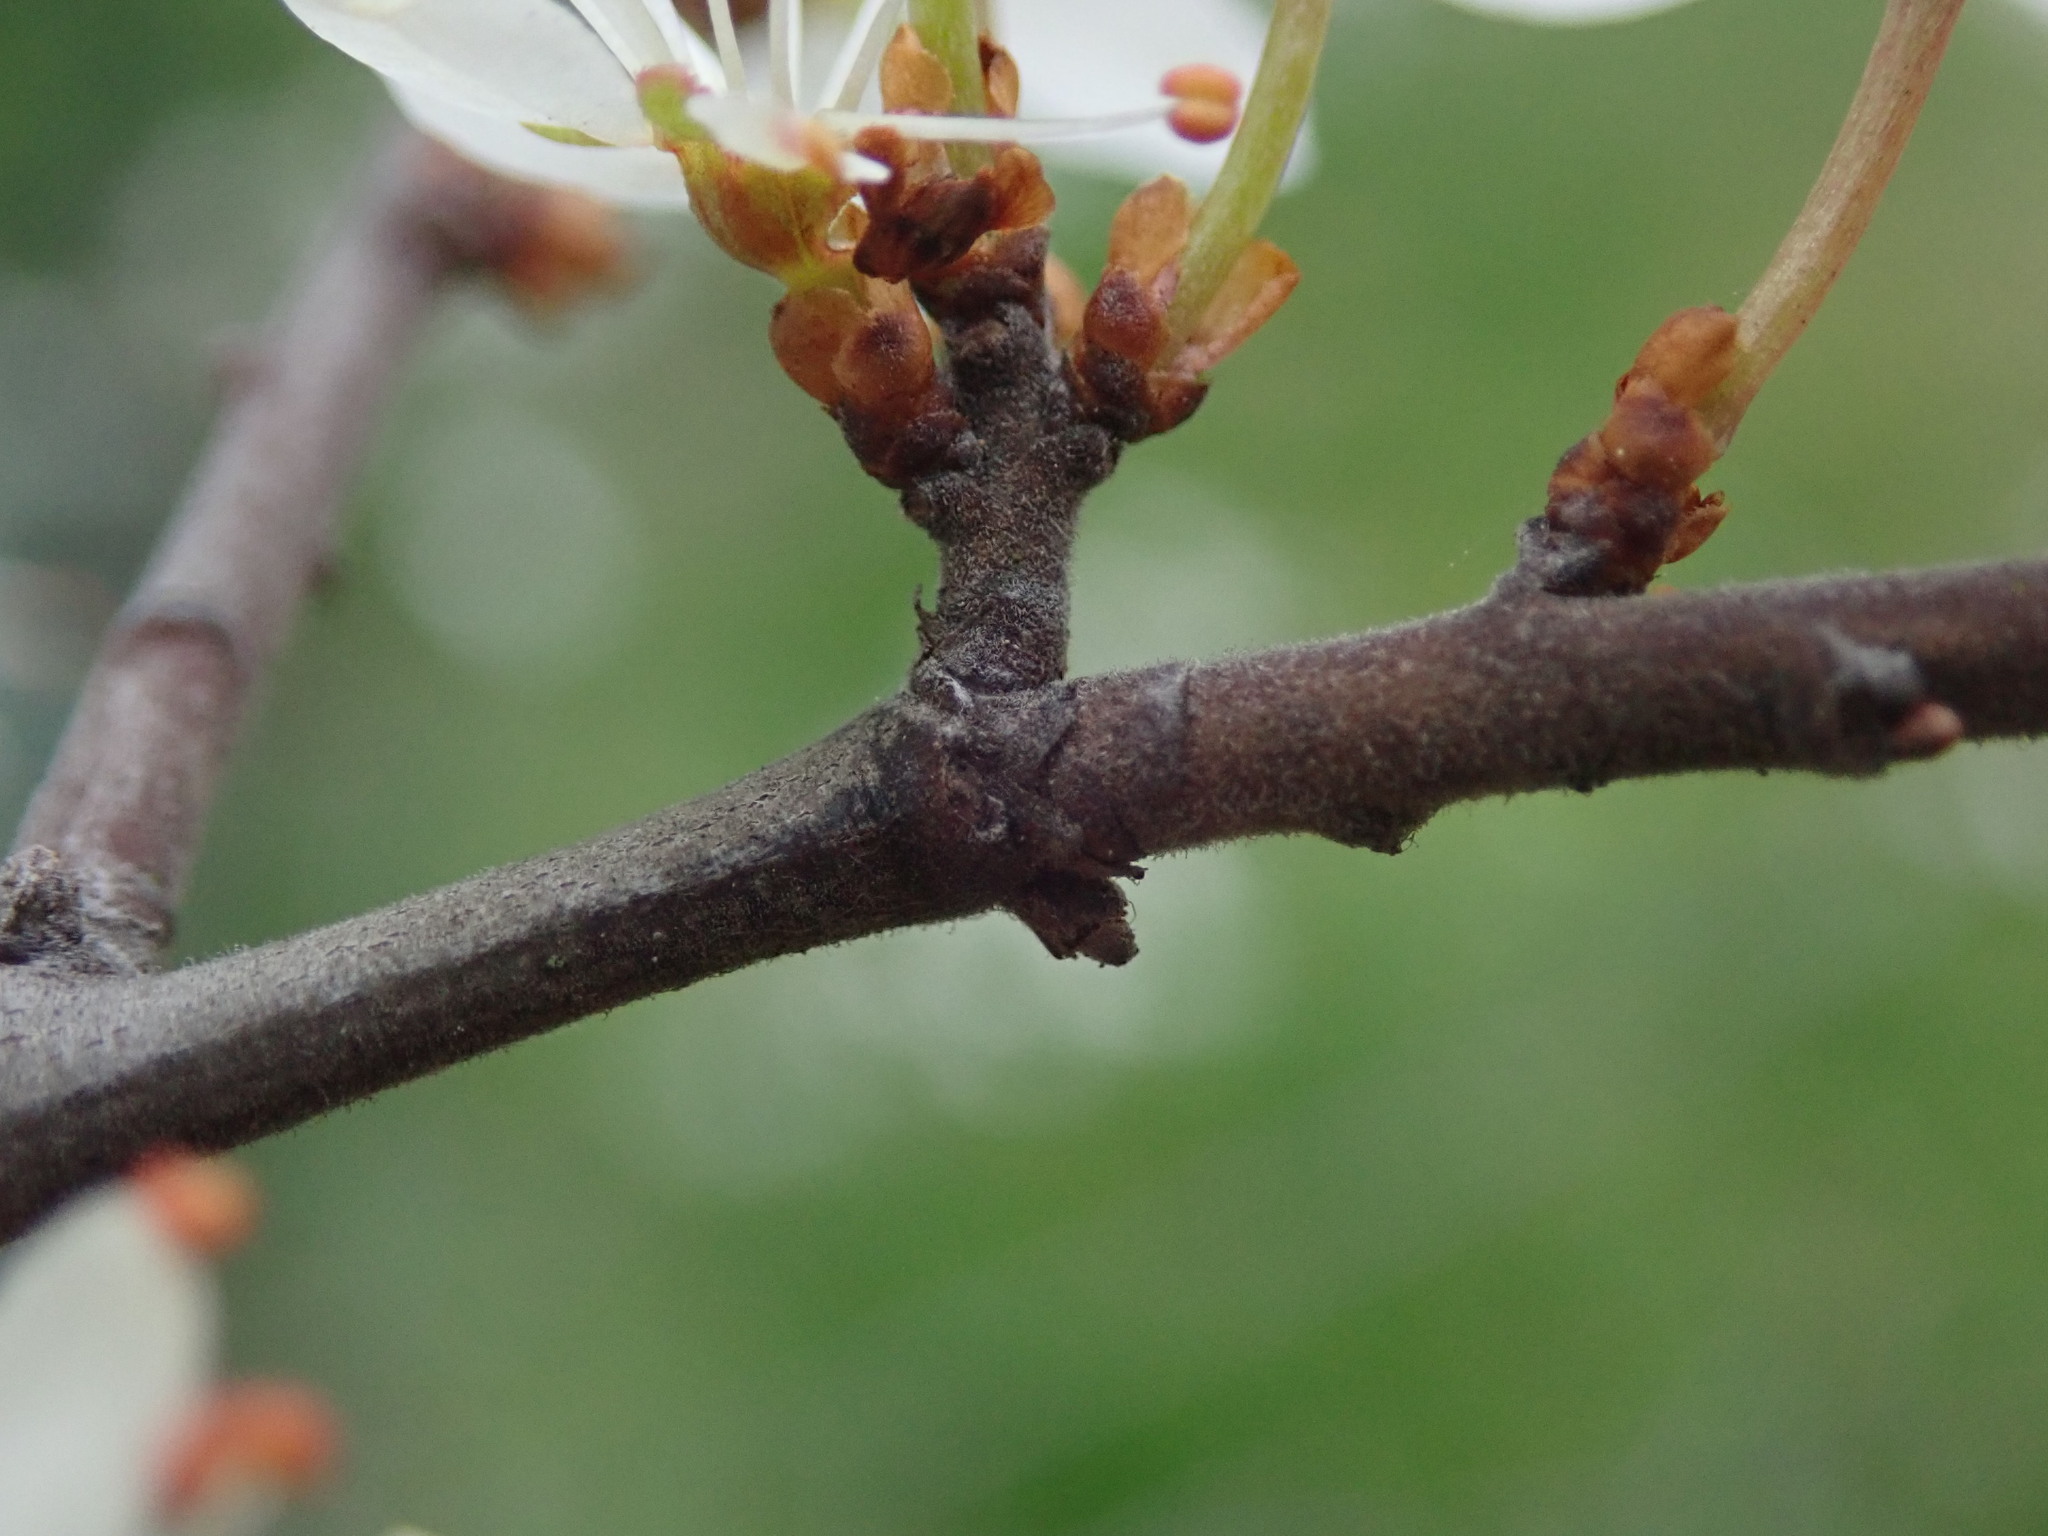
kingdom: Plantae
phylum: Tracheophyta
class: Magnoliopsida
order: Rosales
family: Rosaceae
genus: Prunus
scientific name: Prunus spinosa
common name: Blackthorn
